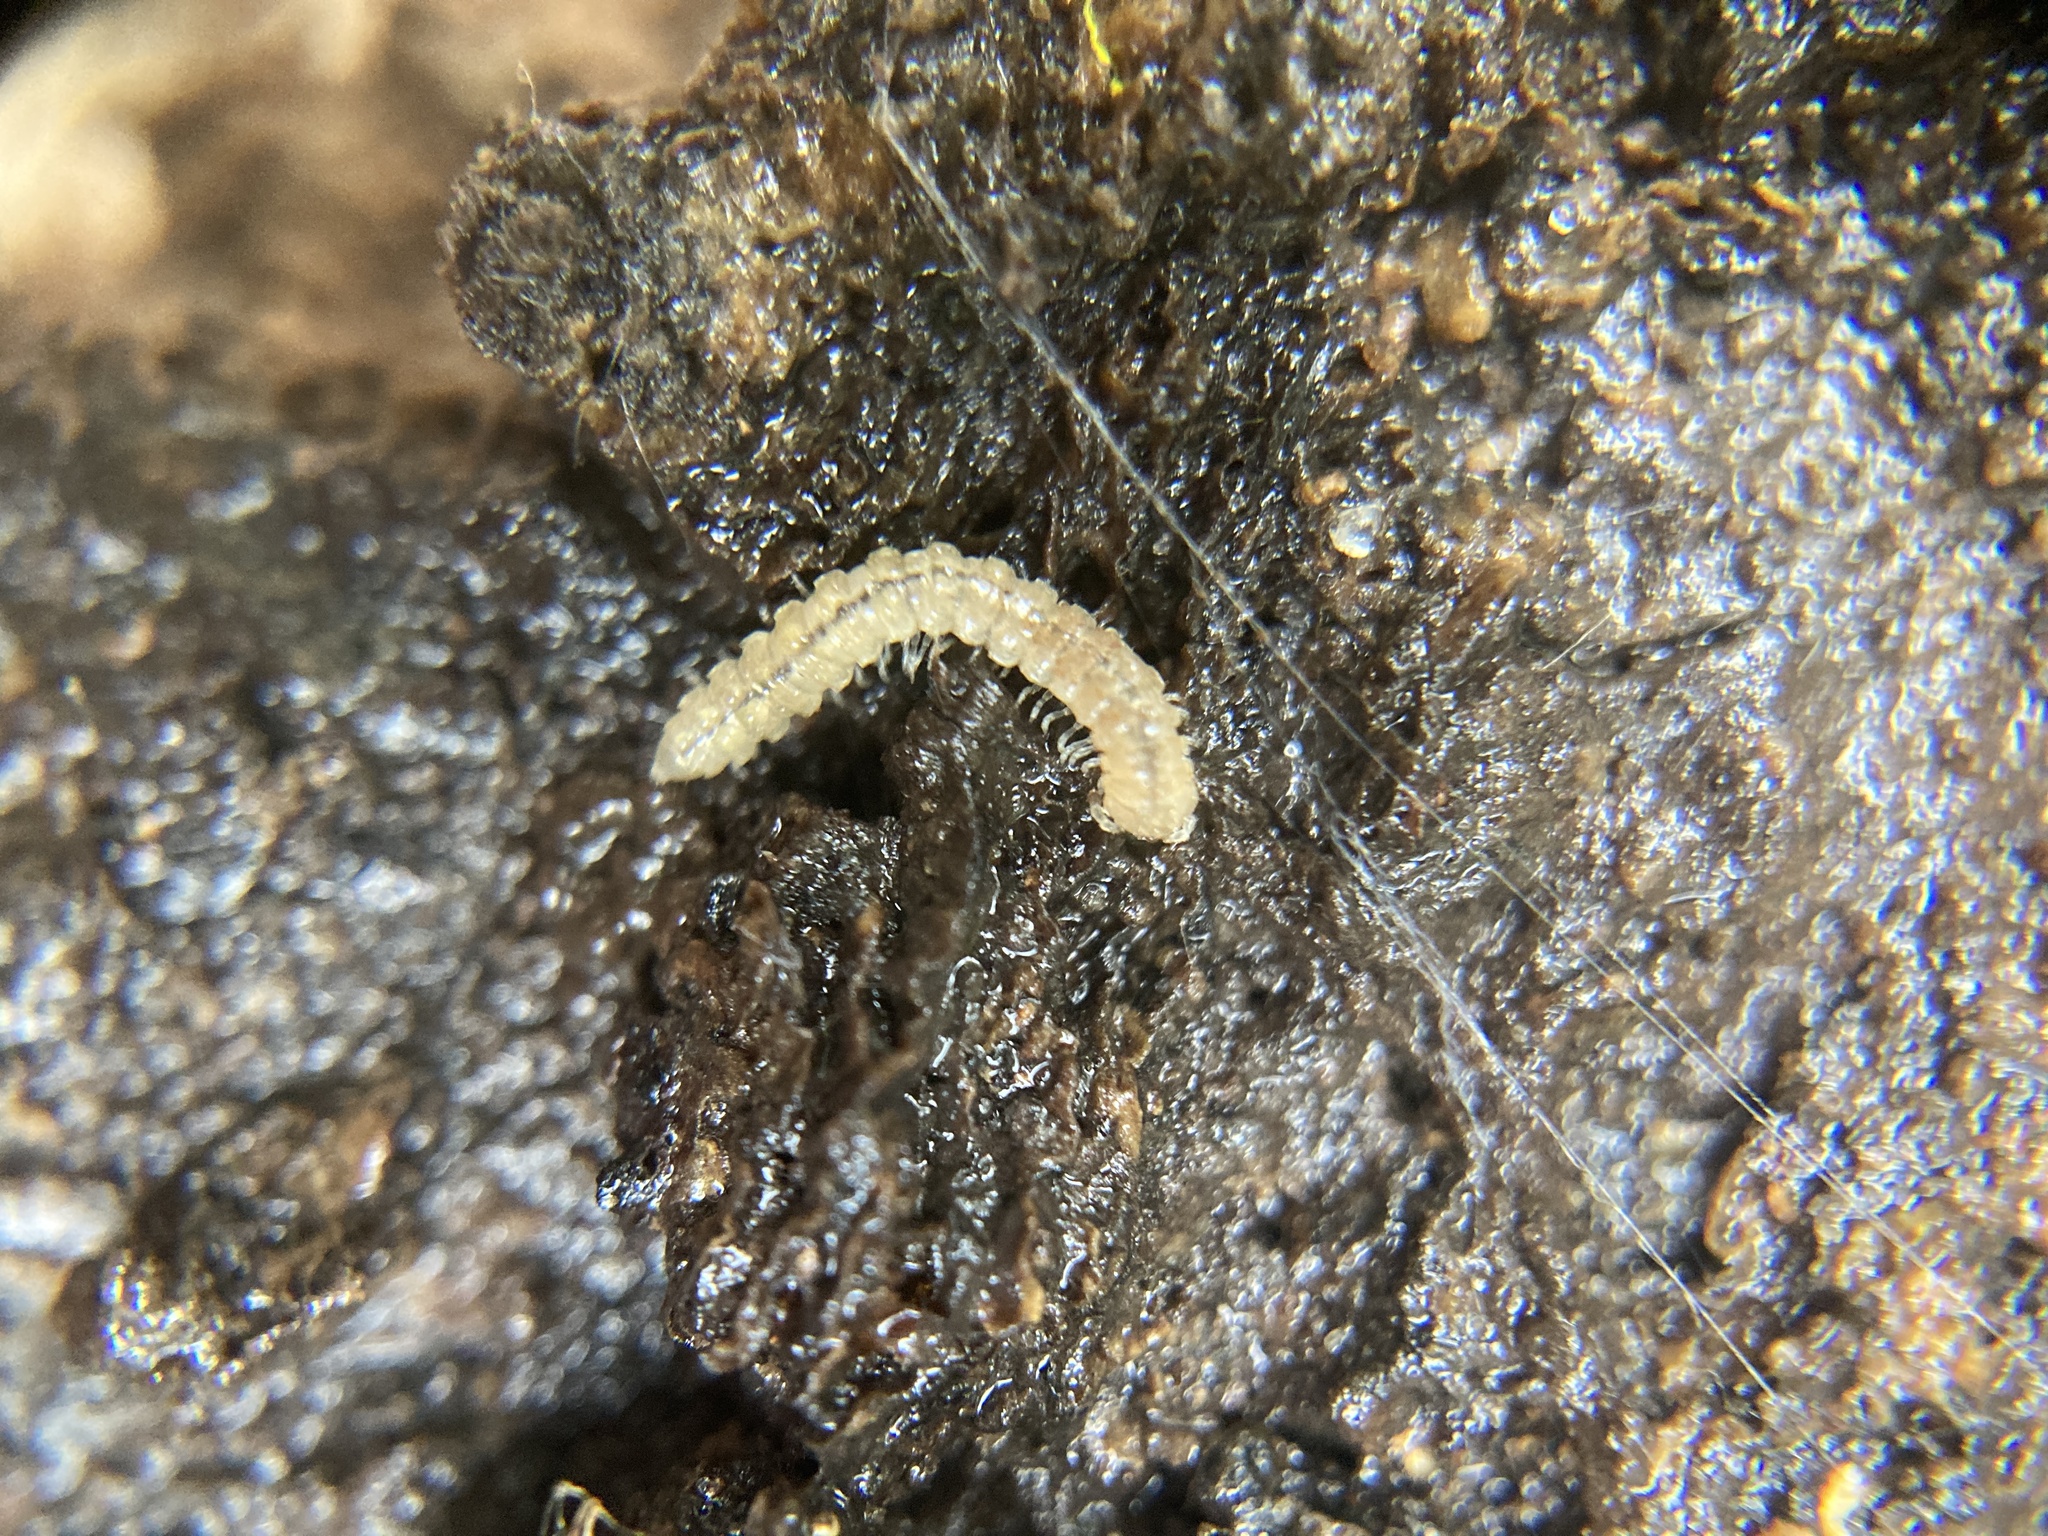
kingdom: Animalia
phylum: Arthropoda
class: Diplopoda
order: Polydesmida
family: Paradoxosomatidae
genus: Oxidus
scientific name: Oxidus gracilis
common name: Greenhouse millipede
